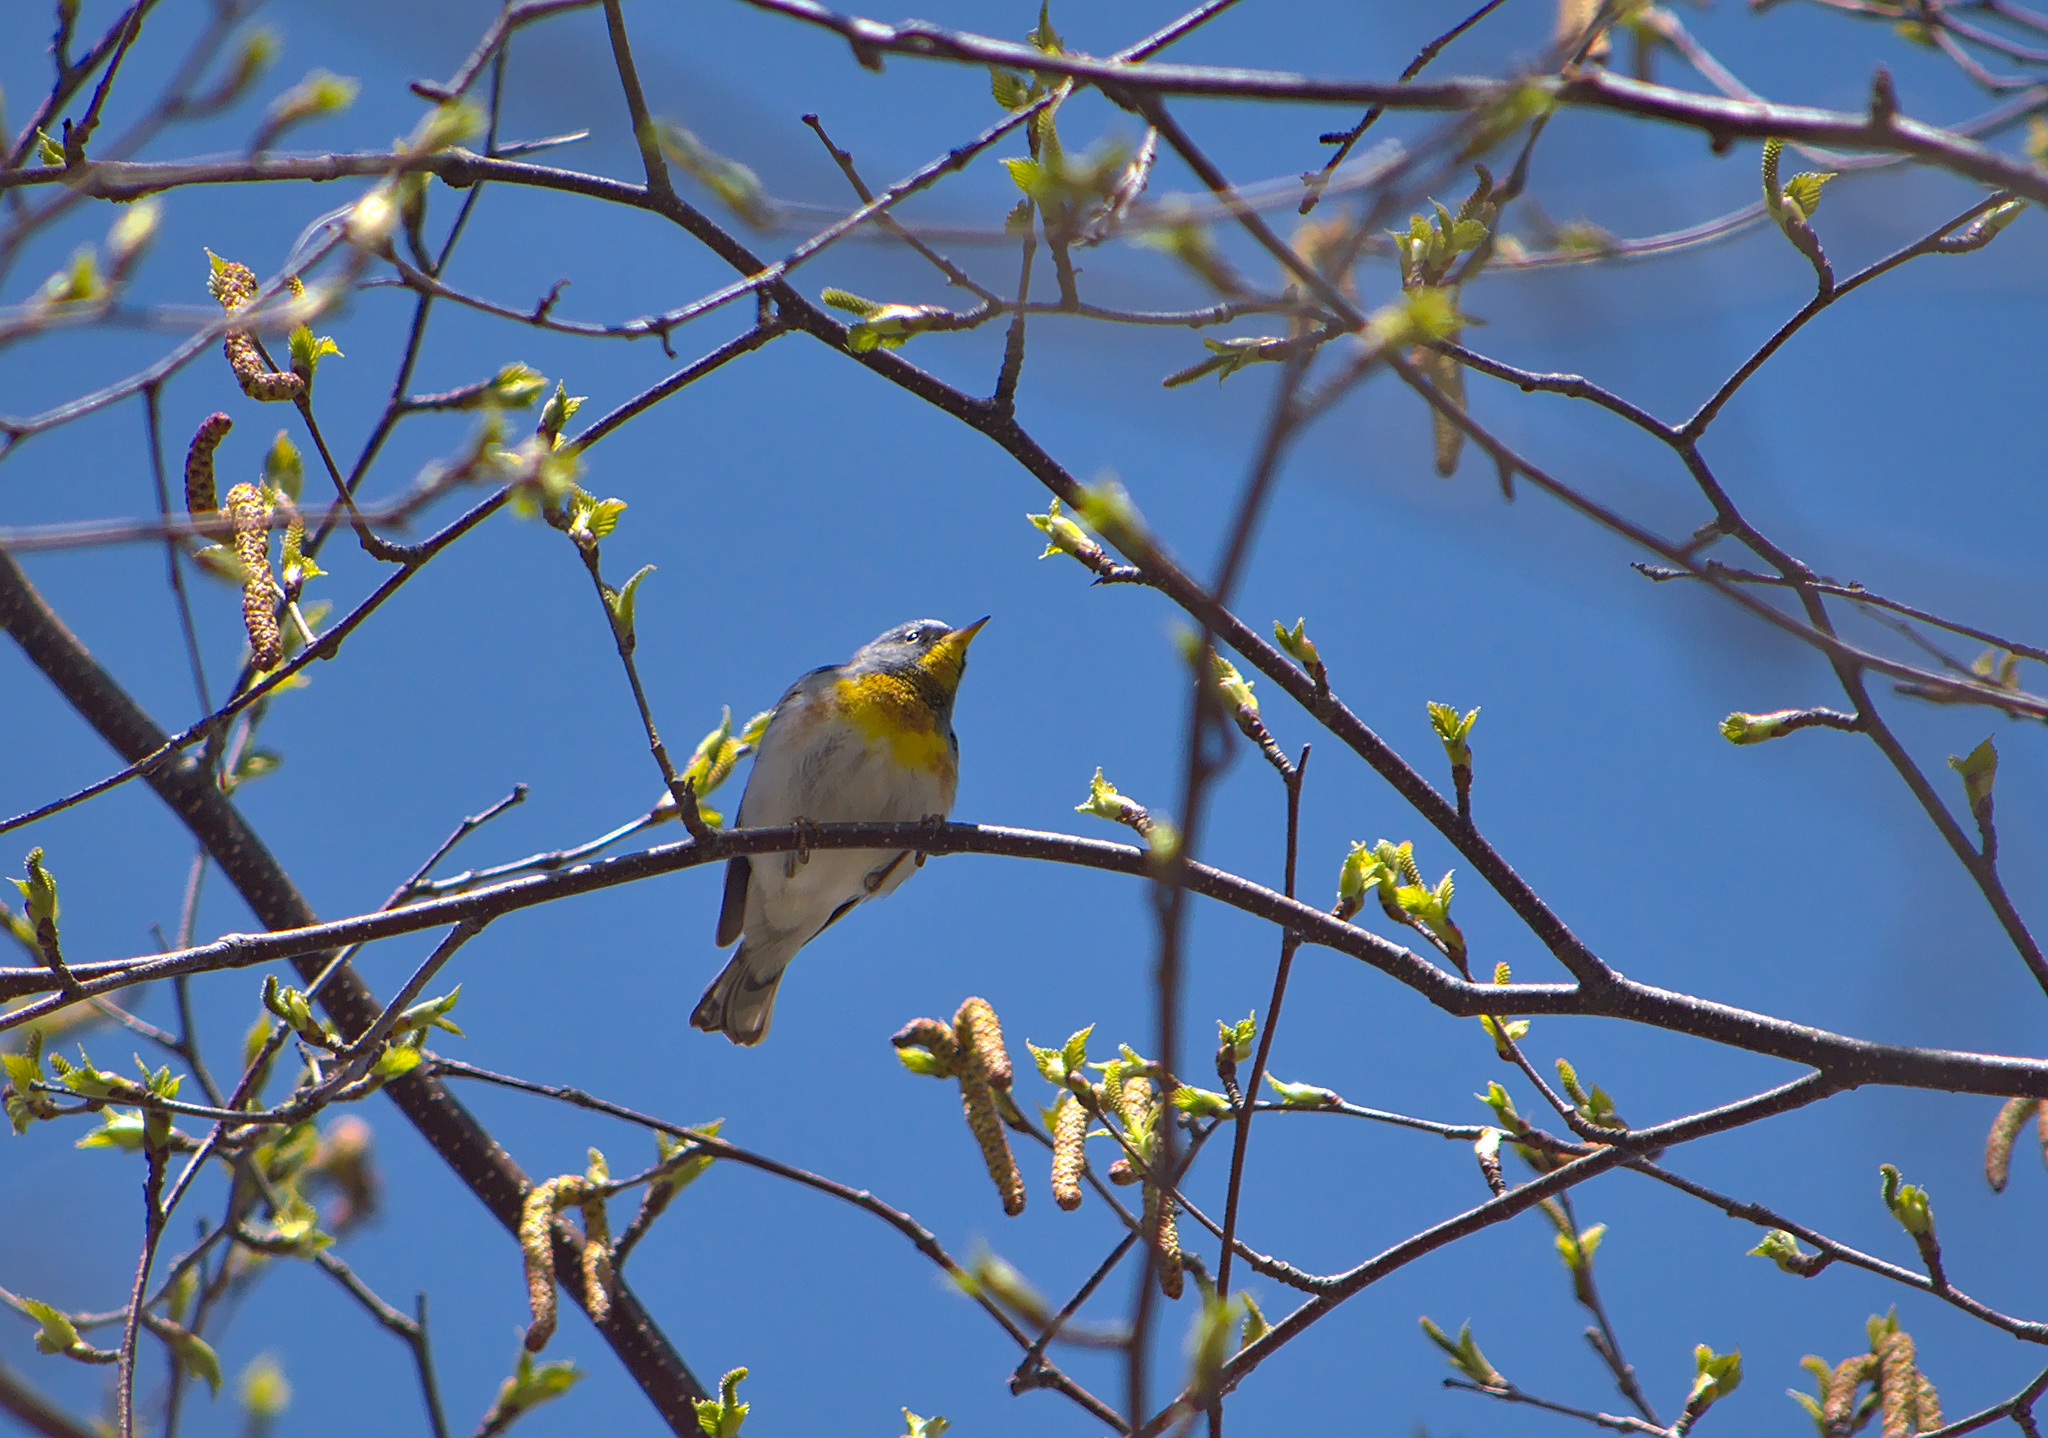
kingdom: Animalia
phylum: Chordata
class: Aves
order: Passeriformes
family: Parulidae
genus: Setophaga
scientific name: Setophaga americana
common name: Northern parula
